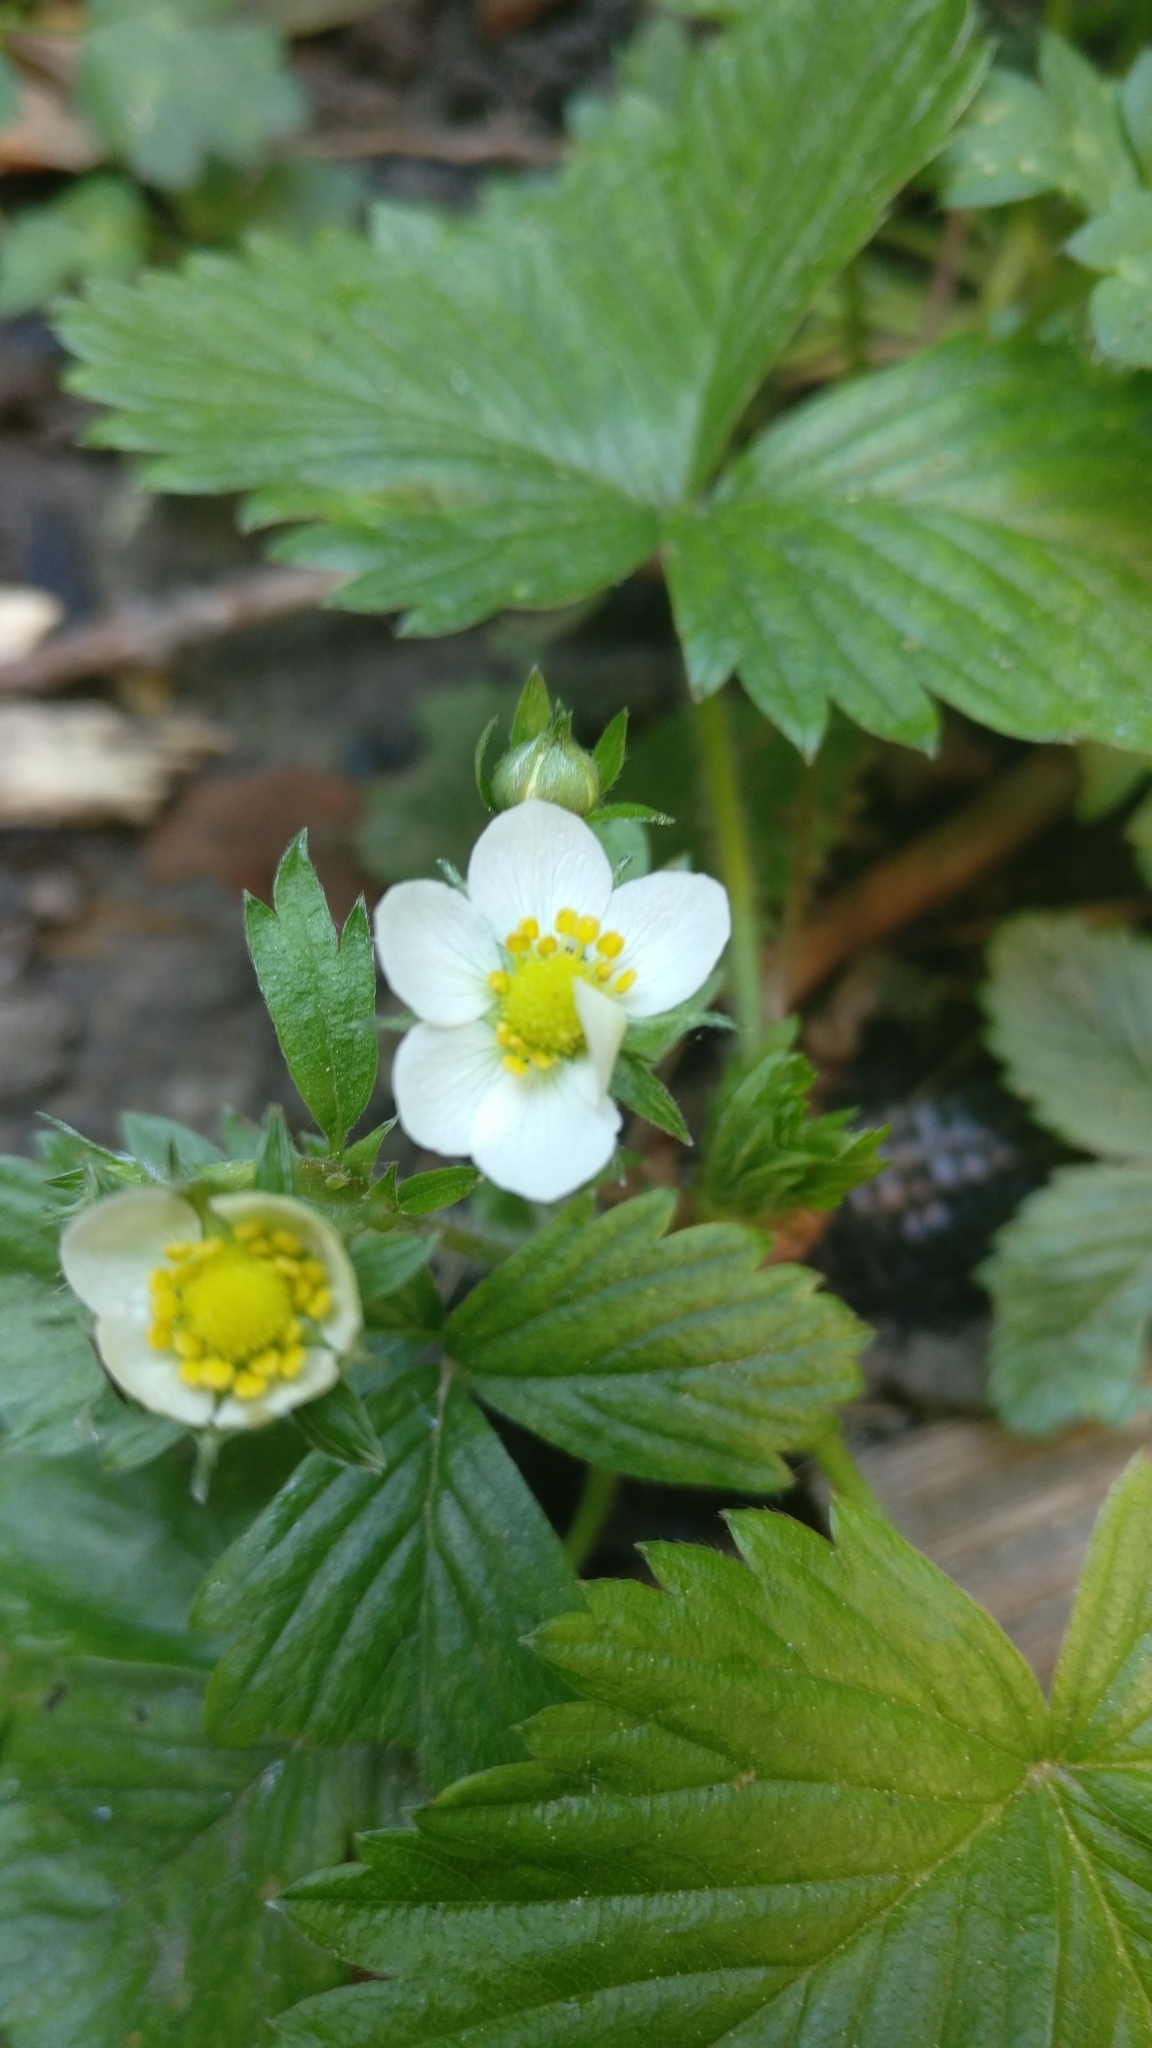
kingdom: Plantae
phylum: Tracheophyta
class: Magnoliopsida
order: Rosales
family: Rosaceae
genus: Fragaria
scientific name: Fragaria vesca
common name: Wild strawberry
